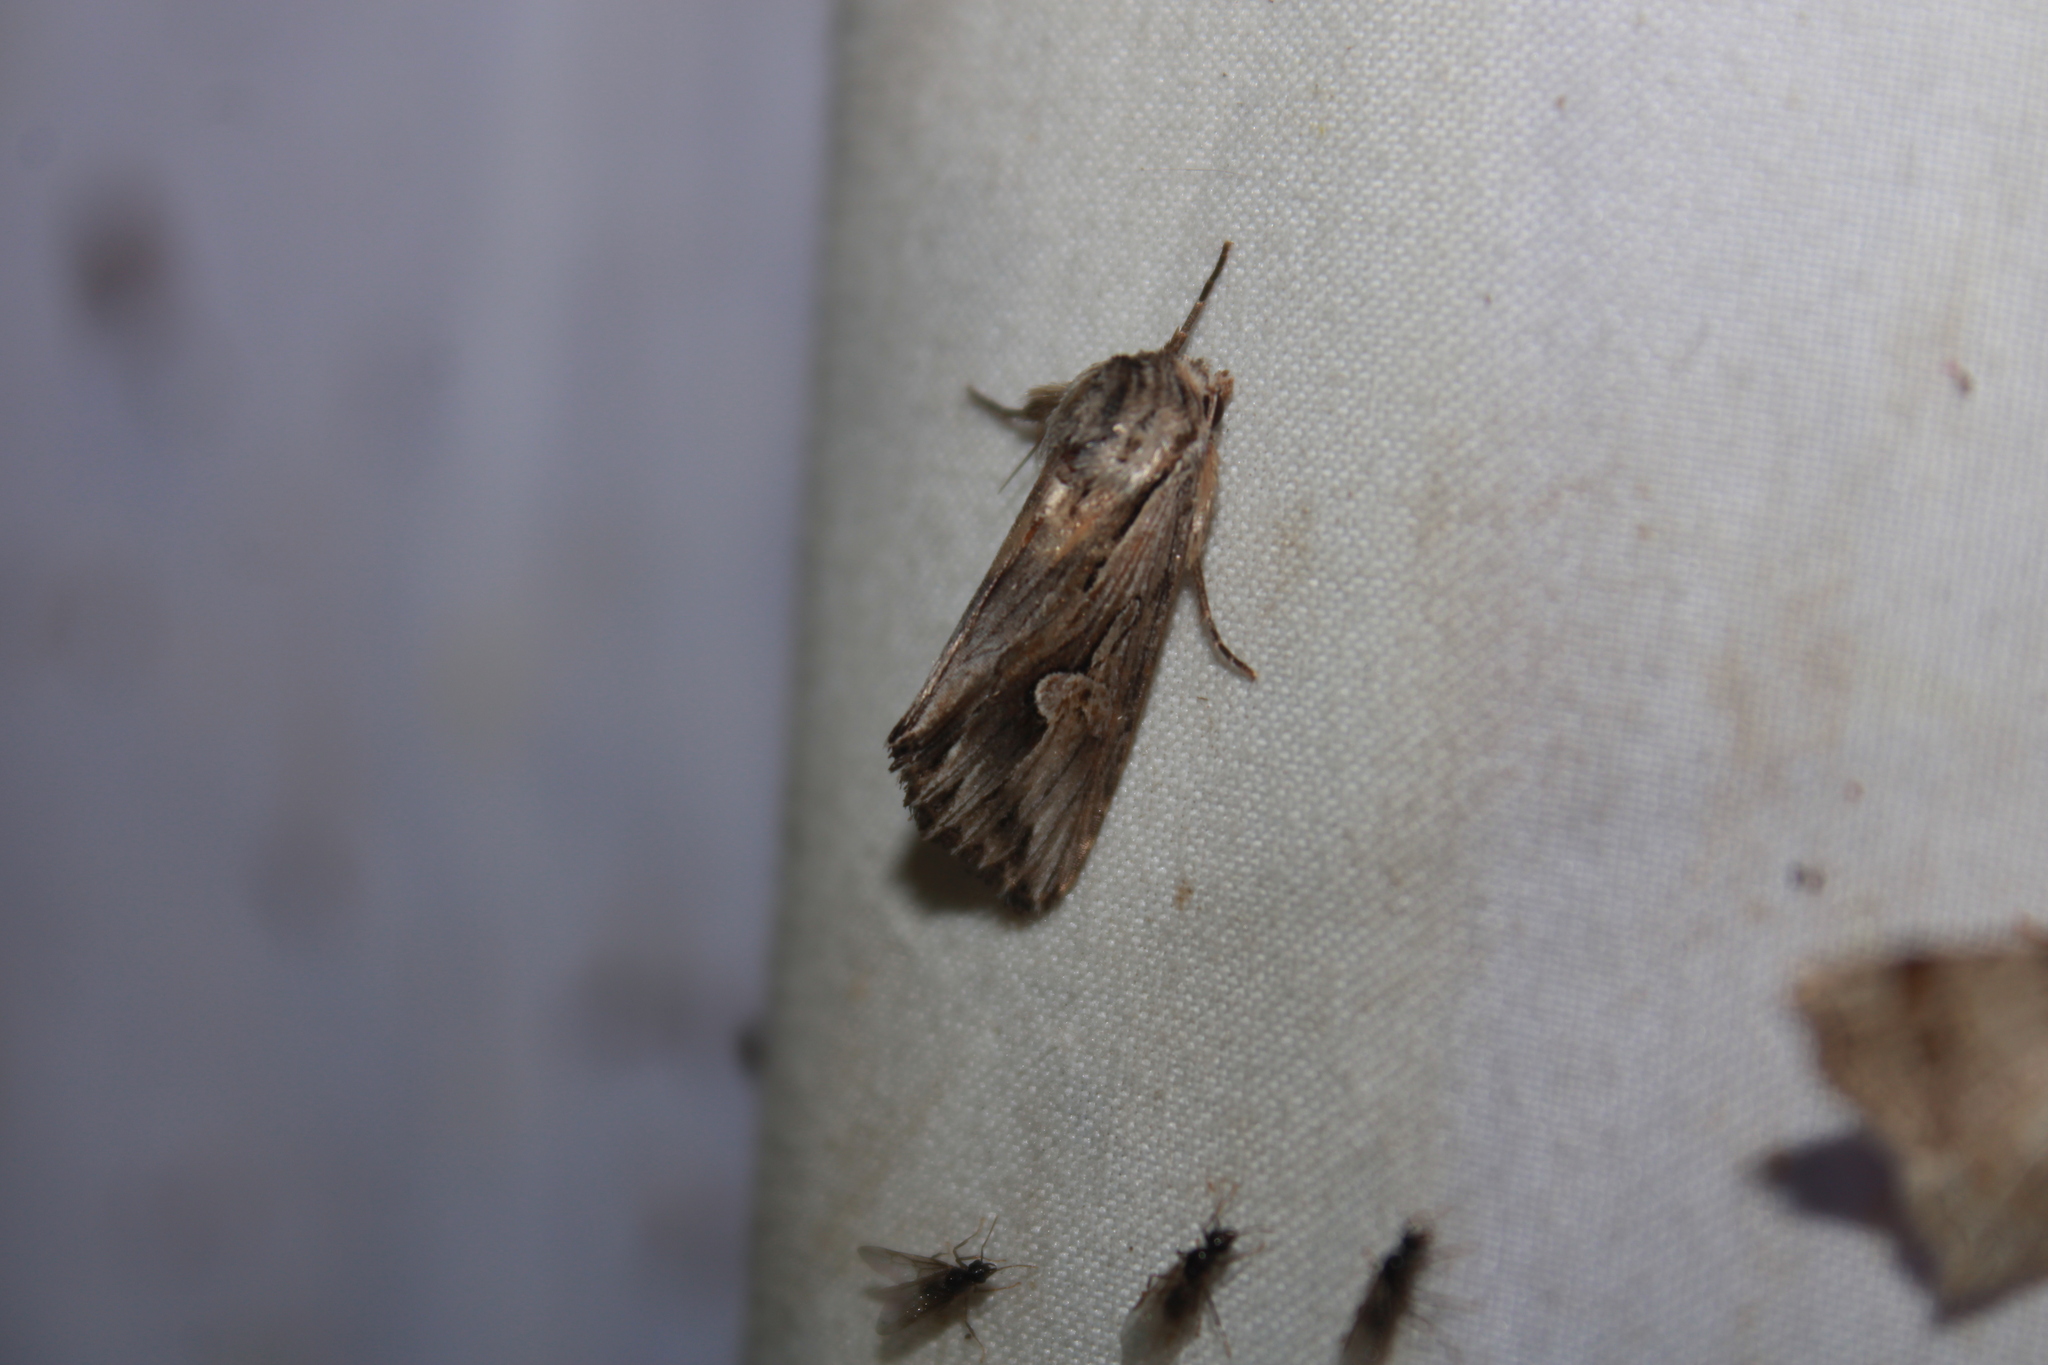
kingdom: Animalia
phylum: Arthropoda
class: Insecta
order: Lepidoptera
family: Noctuidae
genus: Nedra
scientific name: Nedra ramosula
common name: Gray half-spot
